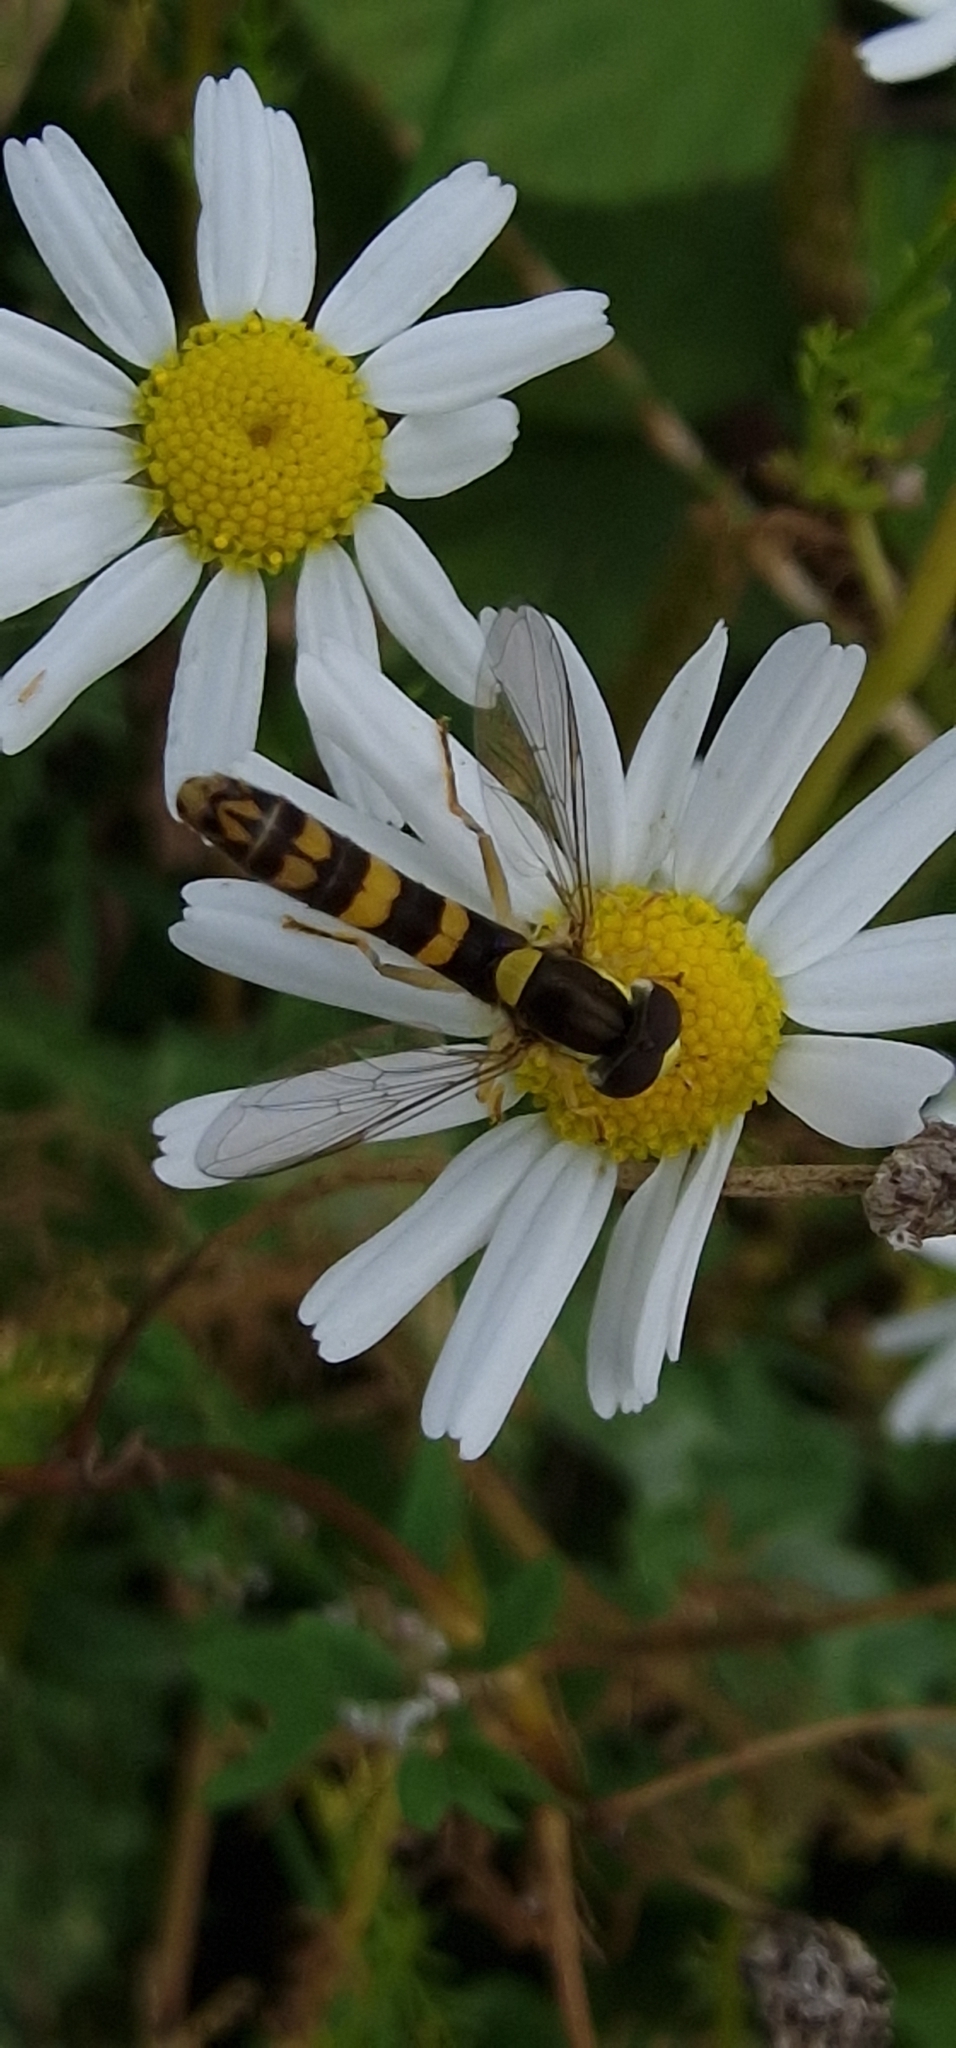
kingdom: Animalia
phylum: Arthropoda
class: Insecta
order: Diptera
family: Syrphidae
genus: Sphaerophoria
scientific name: Sphaerophoria scripta
